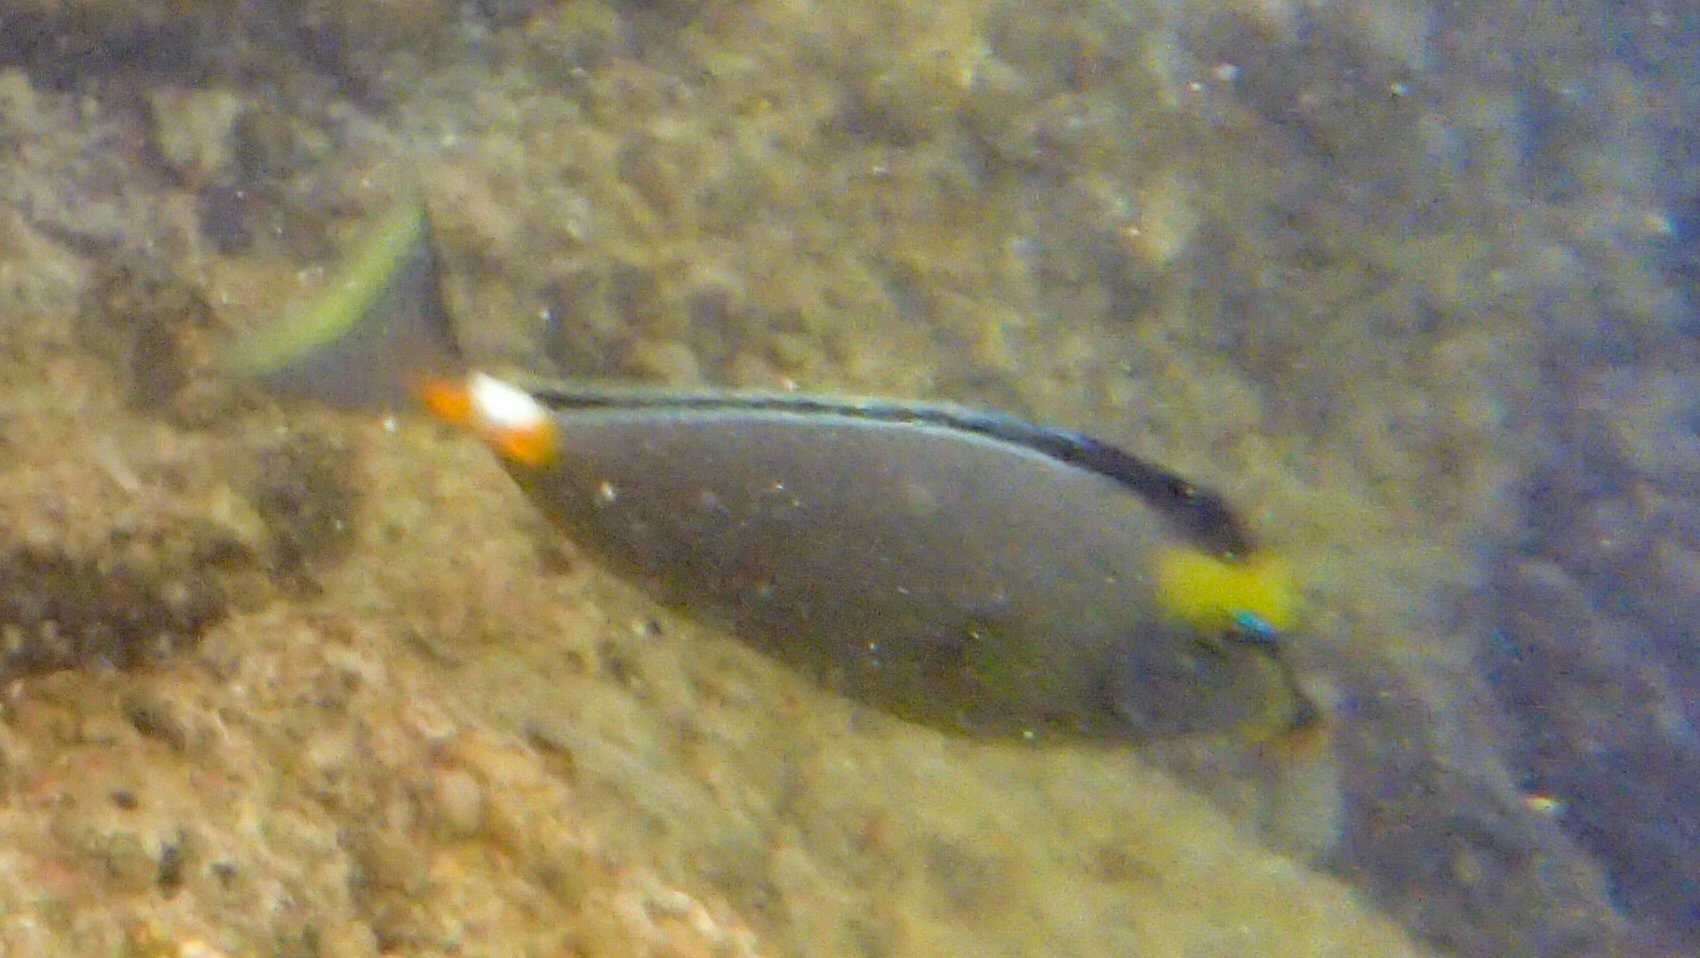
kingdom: Animalia
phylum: Chordata
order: Perciformes
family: Acanthuridae
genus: Naso
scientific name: Naso lituratus
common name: Orangespine unicornfish
